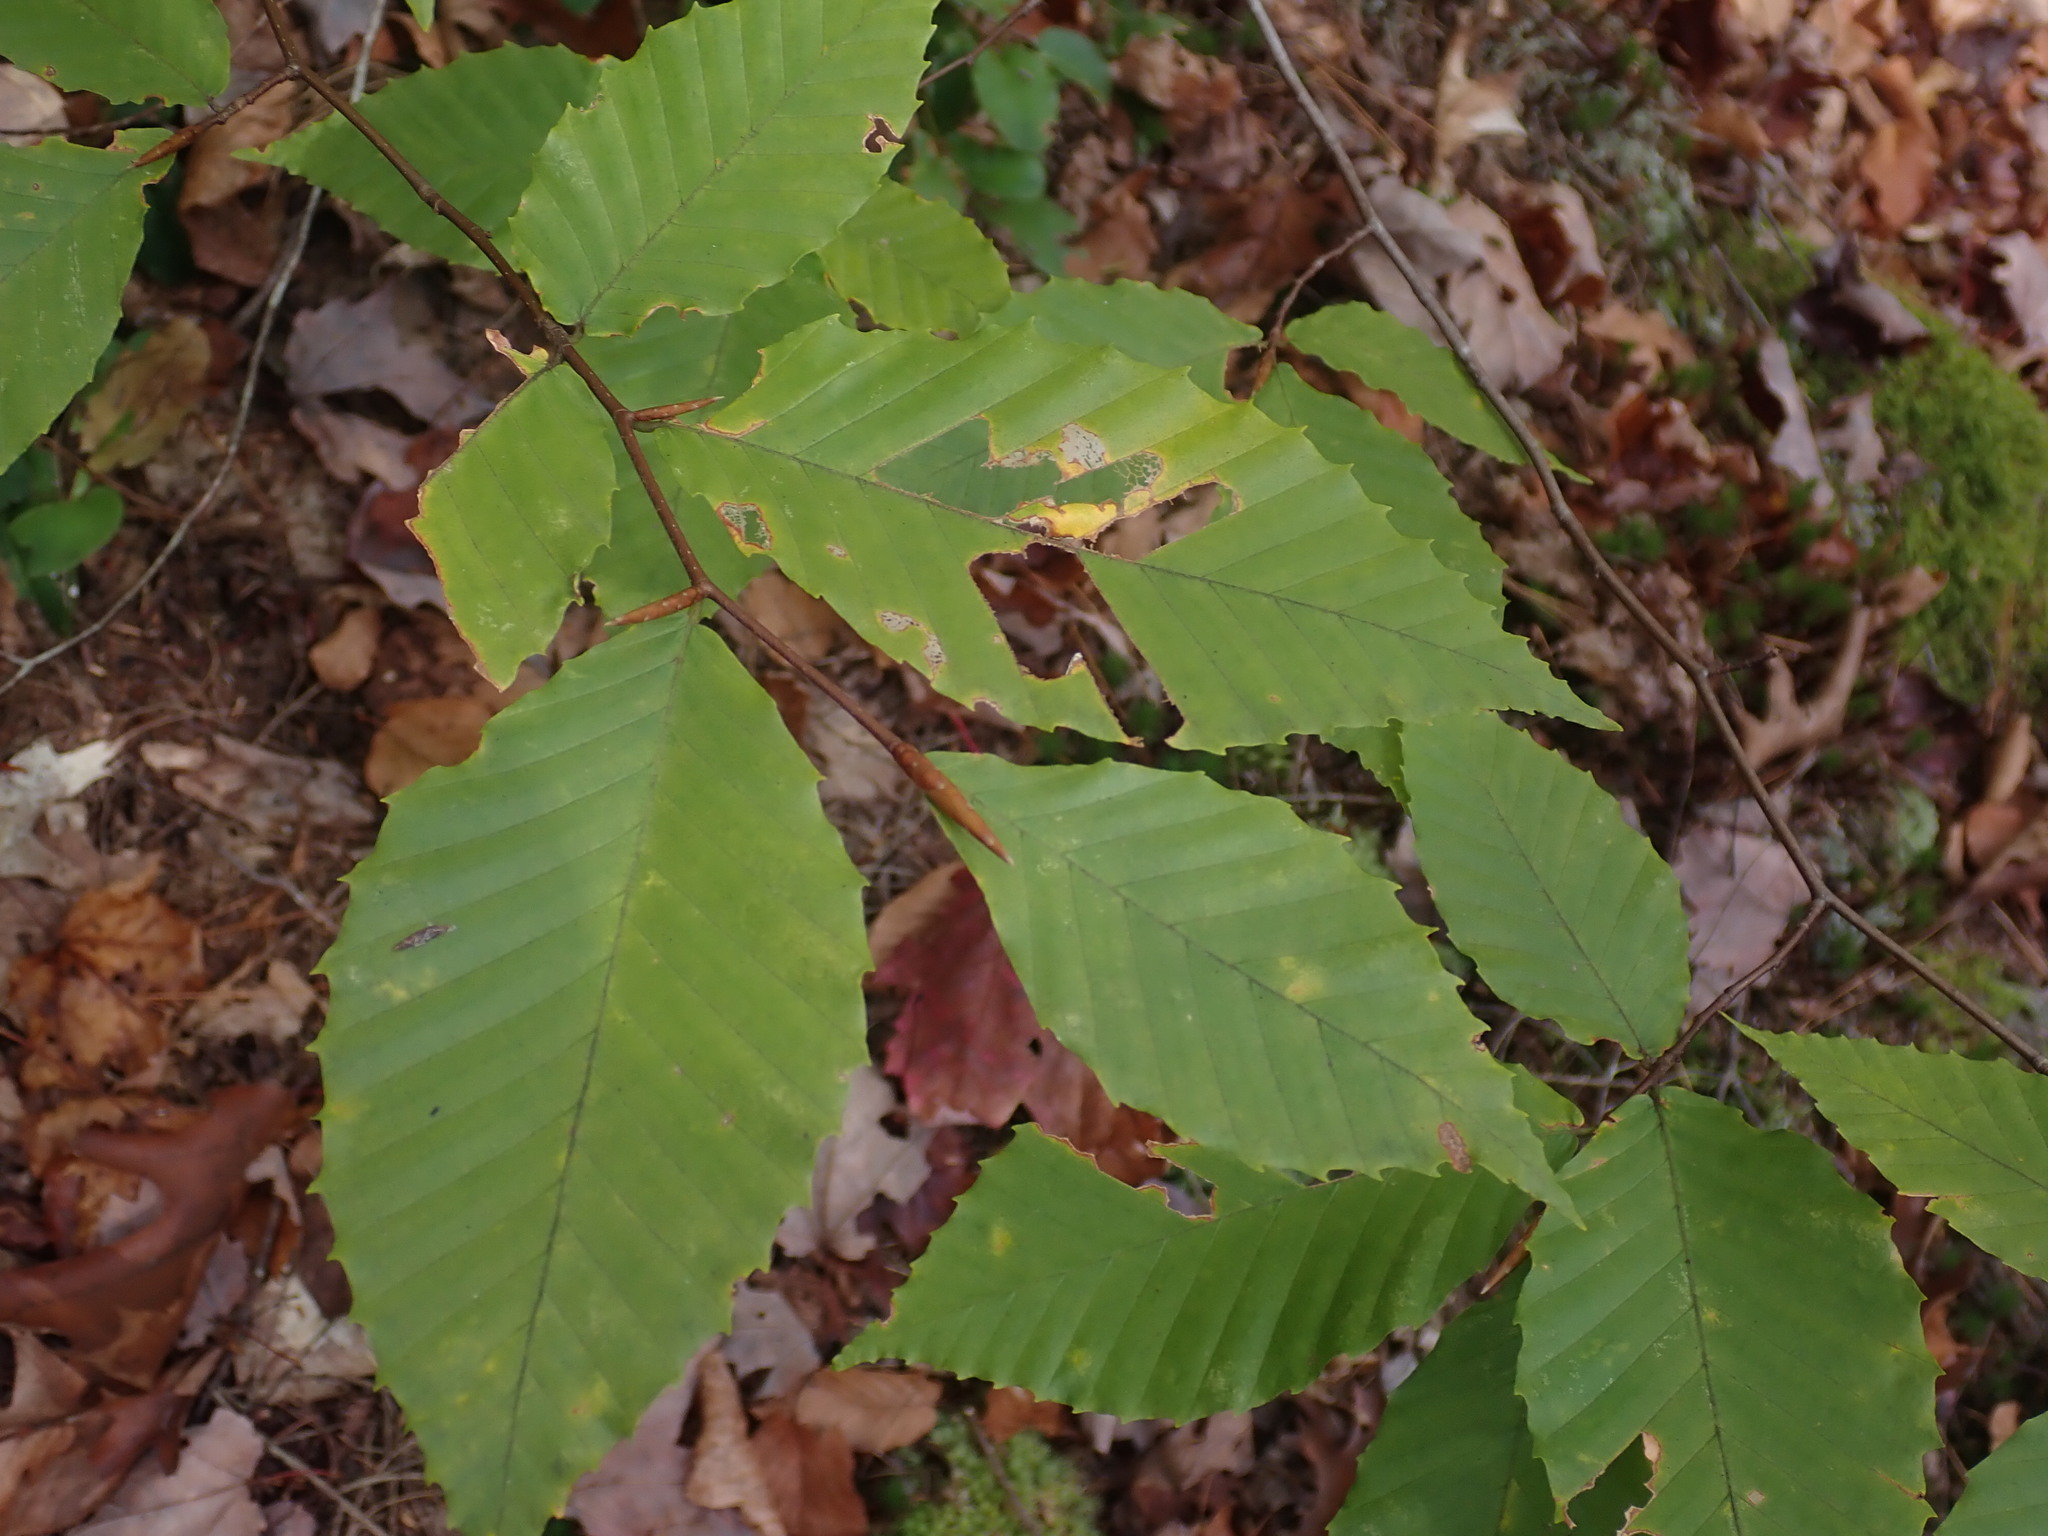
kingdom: Plantae
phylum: Tracheophyta
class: Magnoliopsida
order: Fagales
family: Fagaceae
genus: Fagus
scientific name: Fagus grandifolia
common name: American beech
